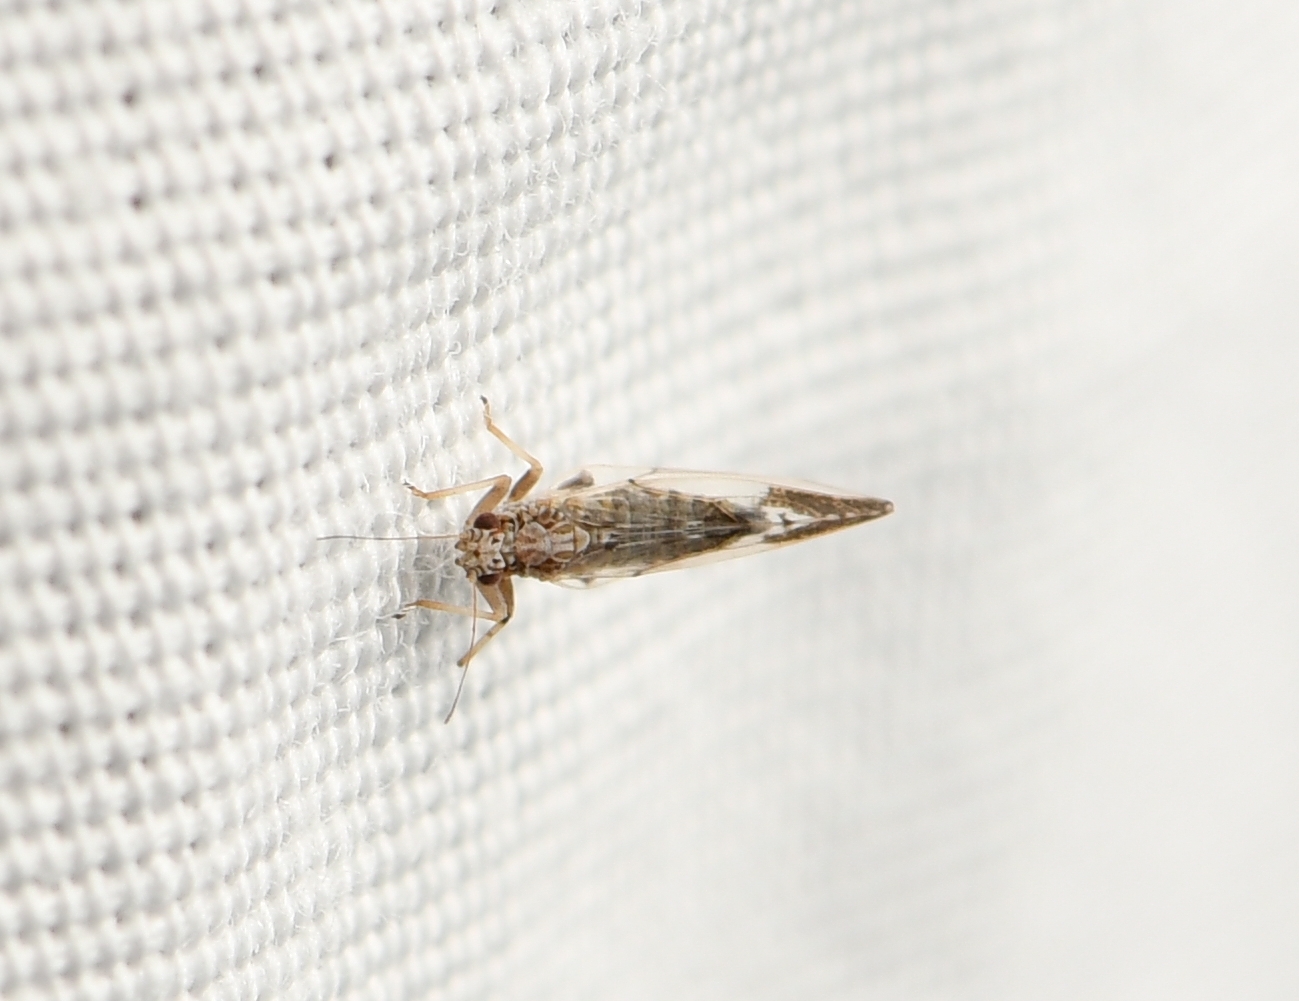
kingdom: Animalia
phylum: Arthropoda
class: Insecta
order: Hemiptera
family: Triozidae
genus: Leuronota
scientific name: Leuronota maculata
